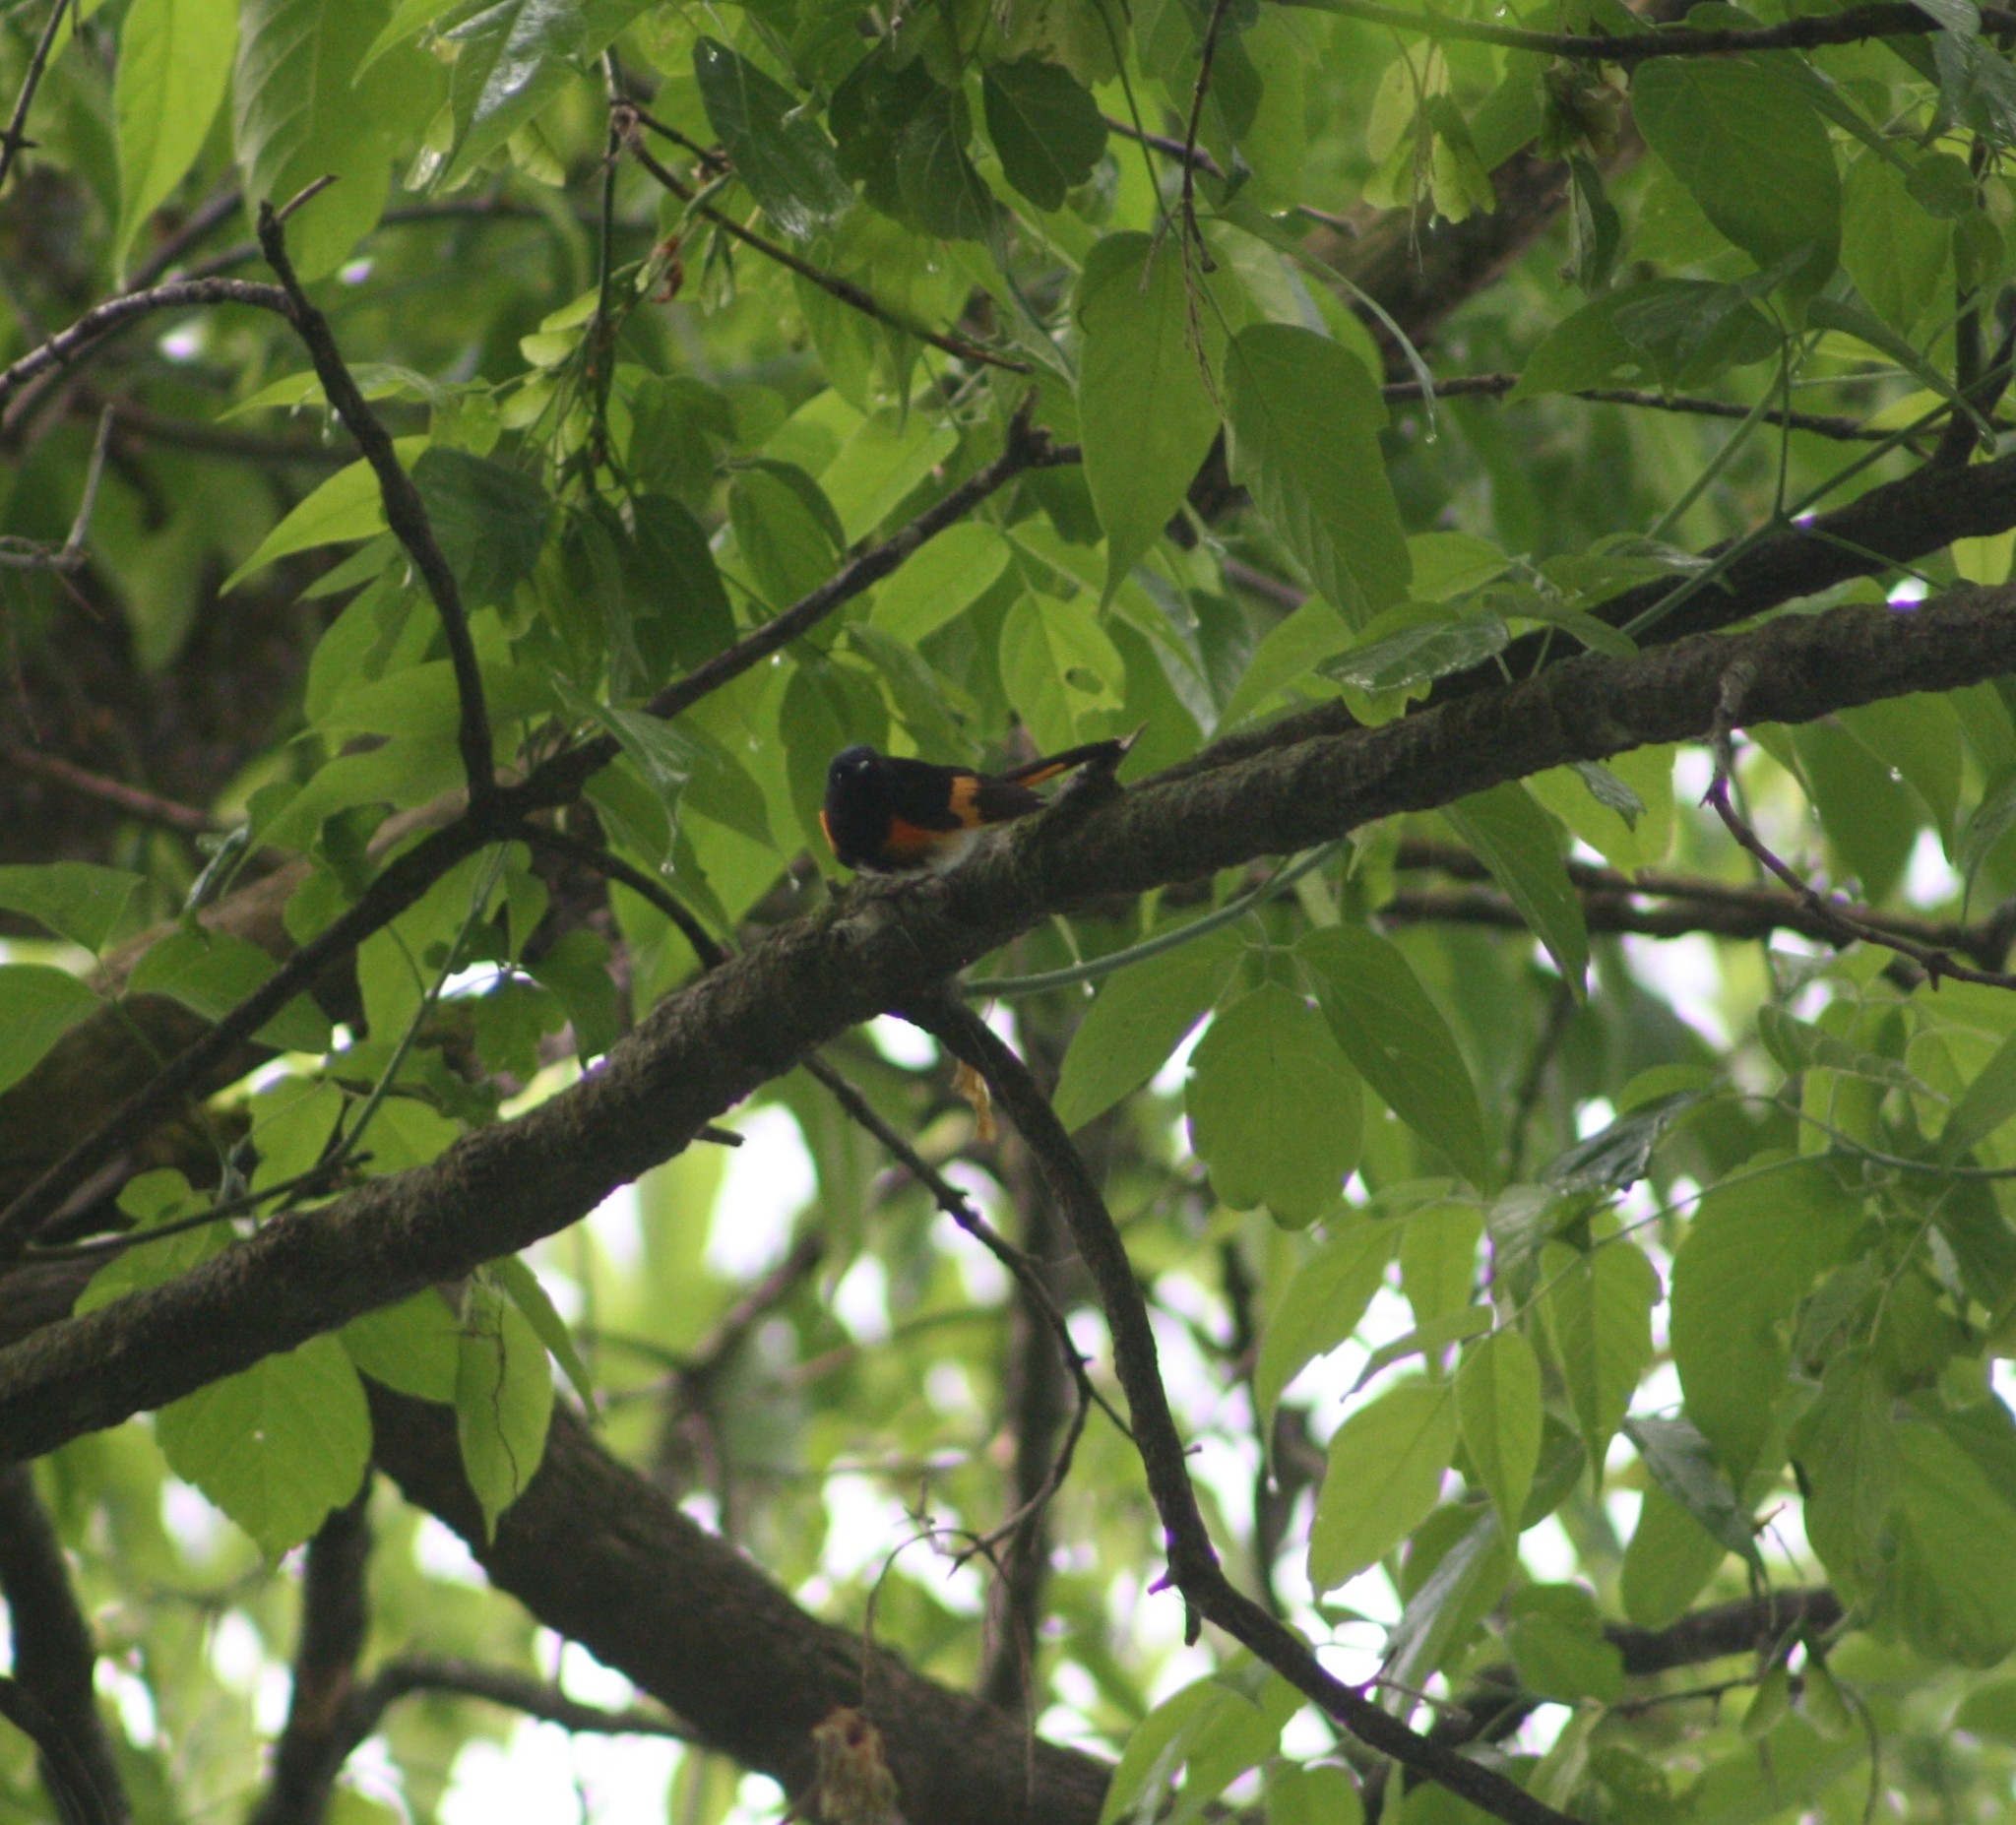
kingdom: Animalia
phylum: Chordata
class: Aves
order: Passeriformes
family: Parulidae
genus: Setophaga
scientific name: Setophaga ruticilla
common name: American redstart
